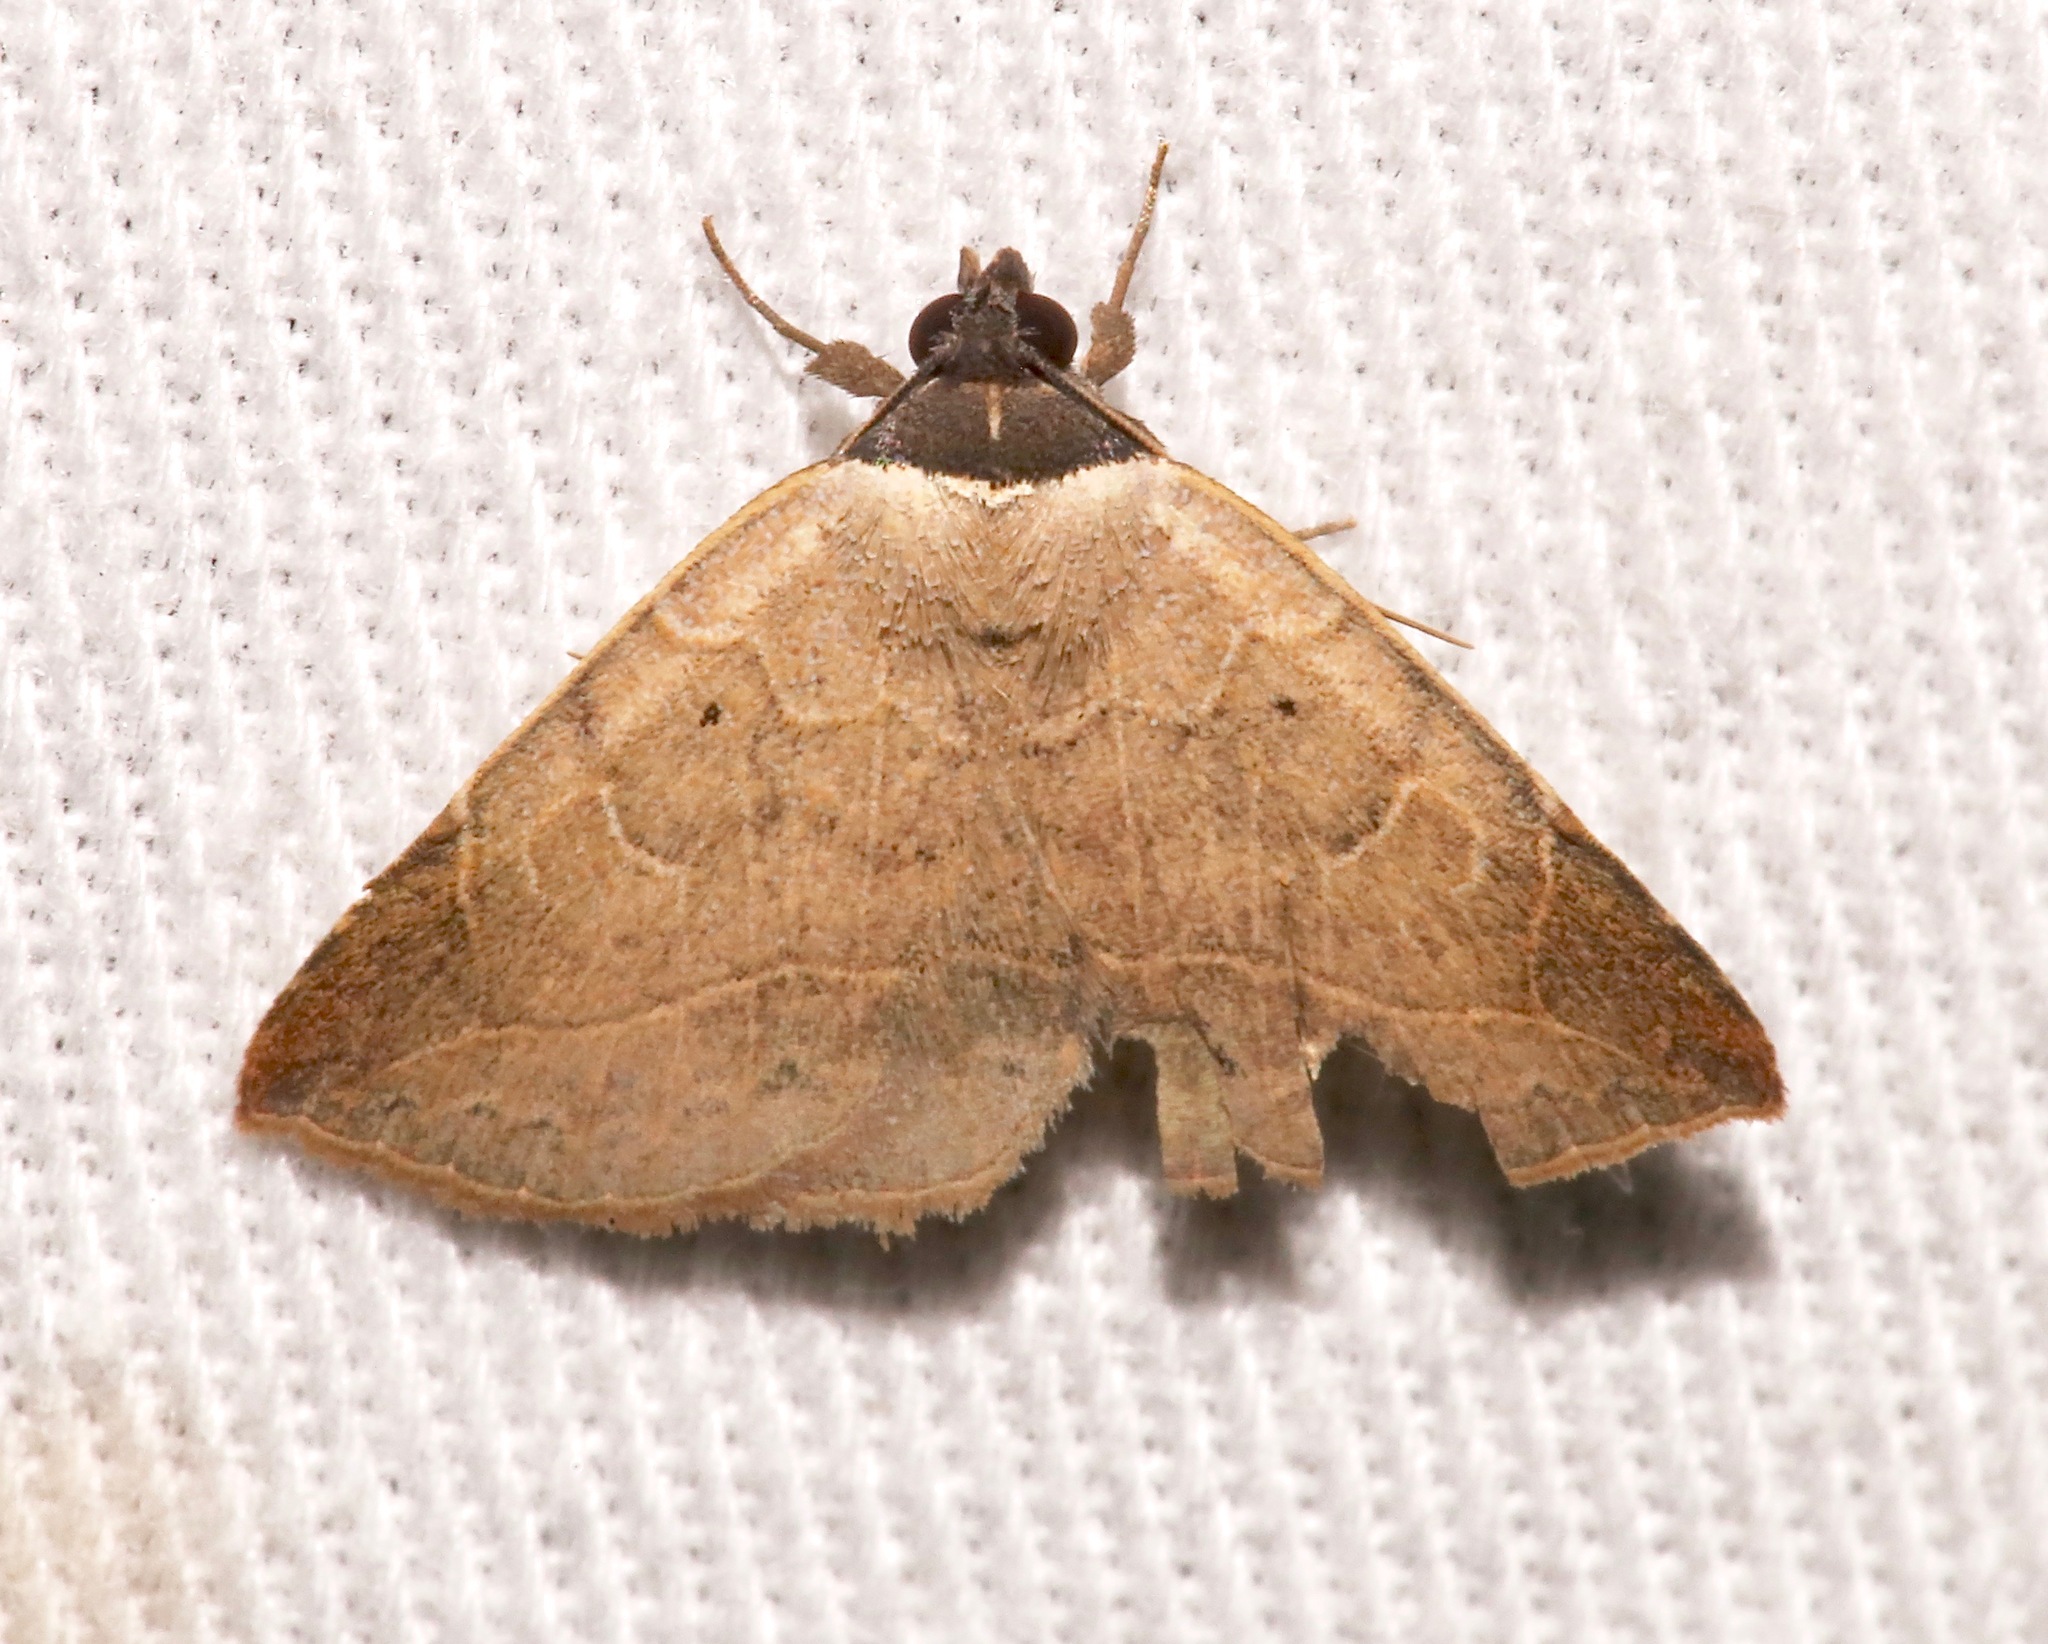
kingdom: Animalia
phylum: Arthropoda
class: Insecta
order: Lepidoptera
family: Erebidae
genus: Isogona
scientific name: Isogona segura
